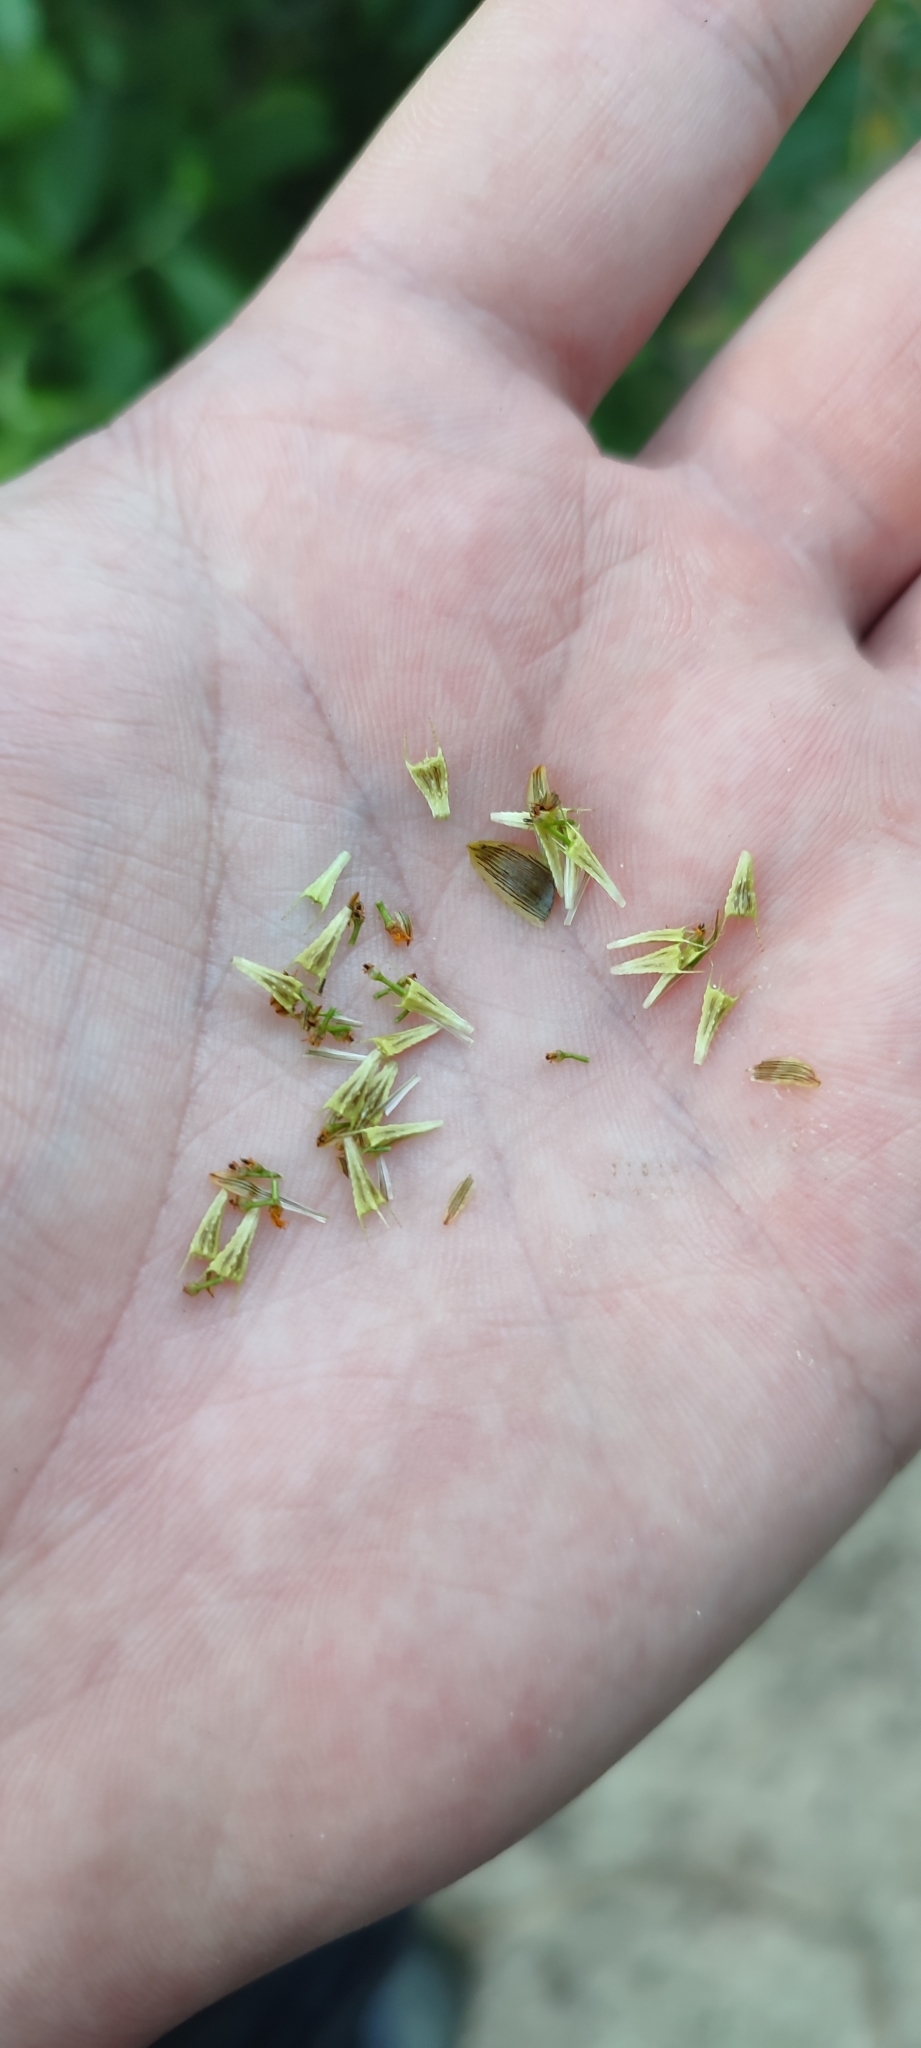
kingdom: Plantae
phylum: Tracheophyta
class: Magnoliopsida
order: Asterales
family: Asteraceae
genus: Bidens
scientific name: Bidens cernua
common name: Nodding bur-marigold
